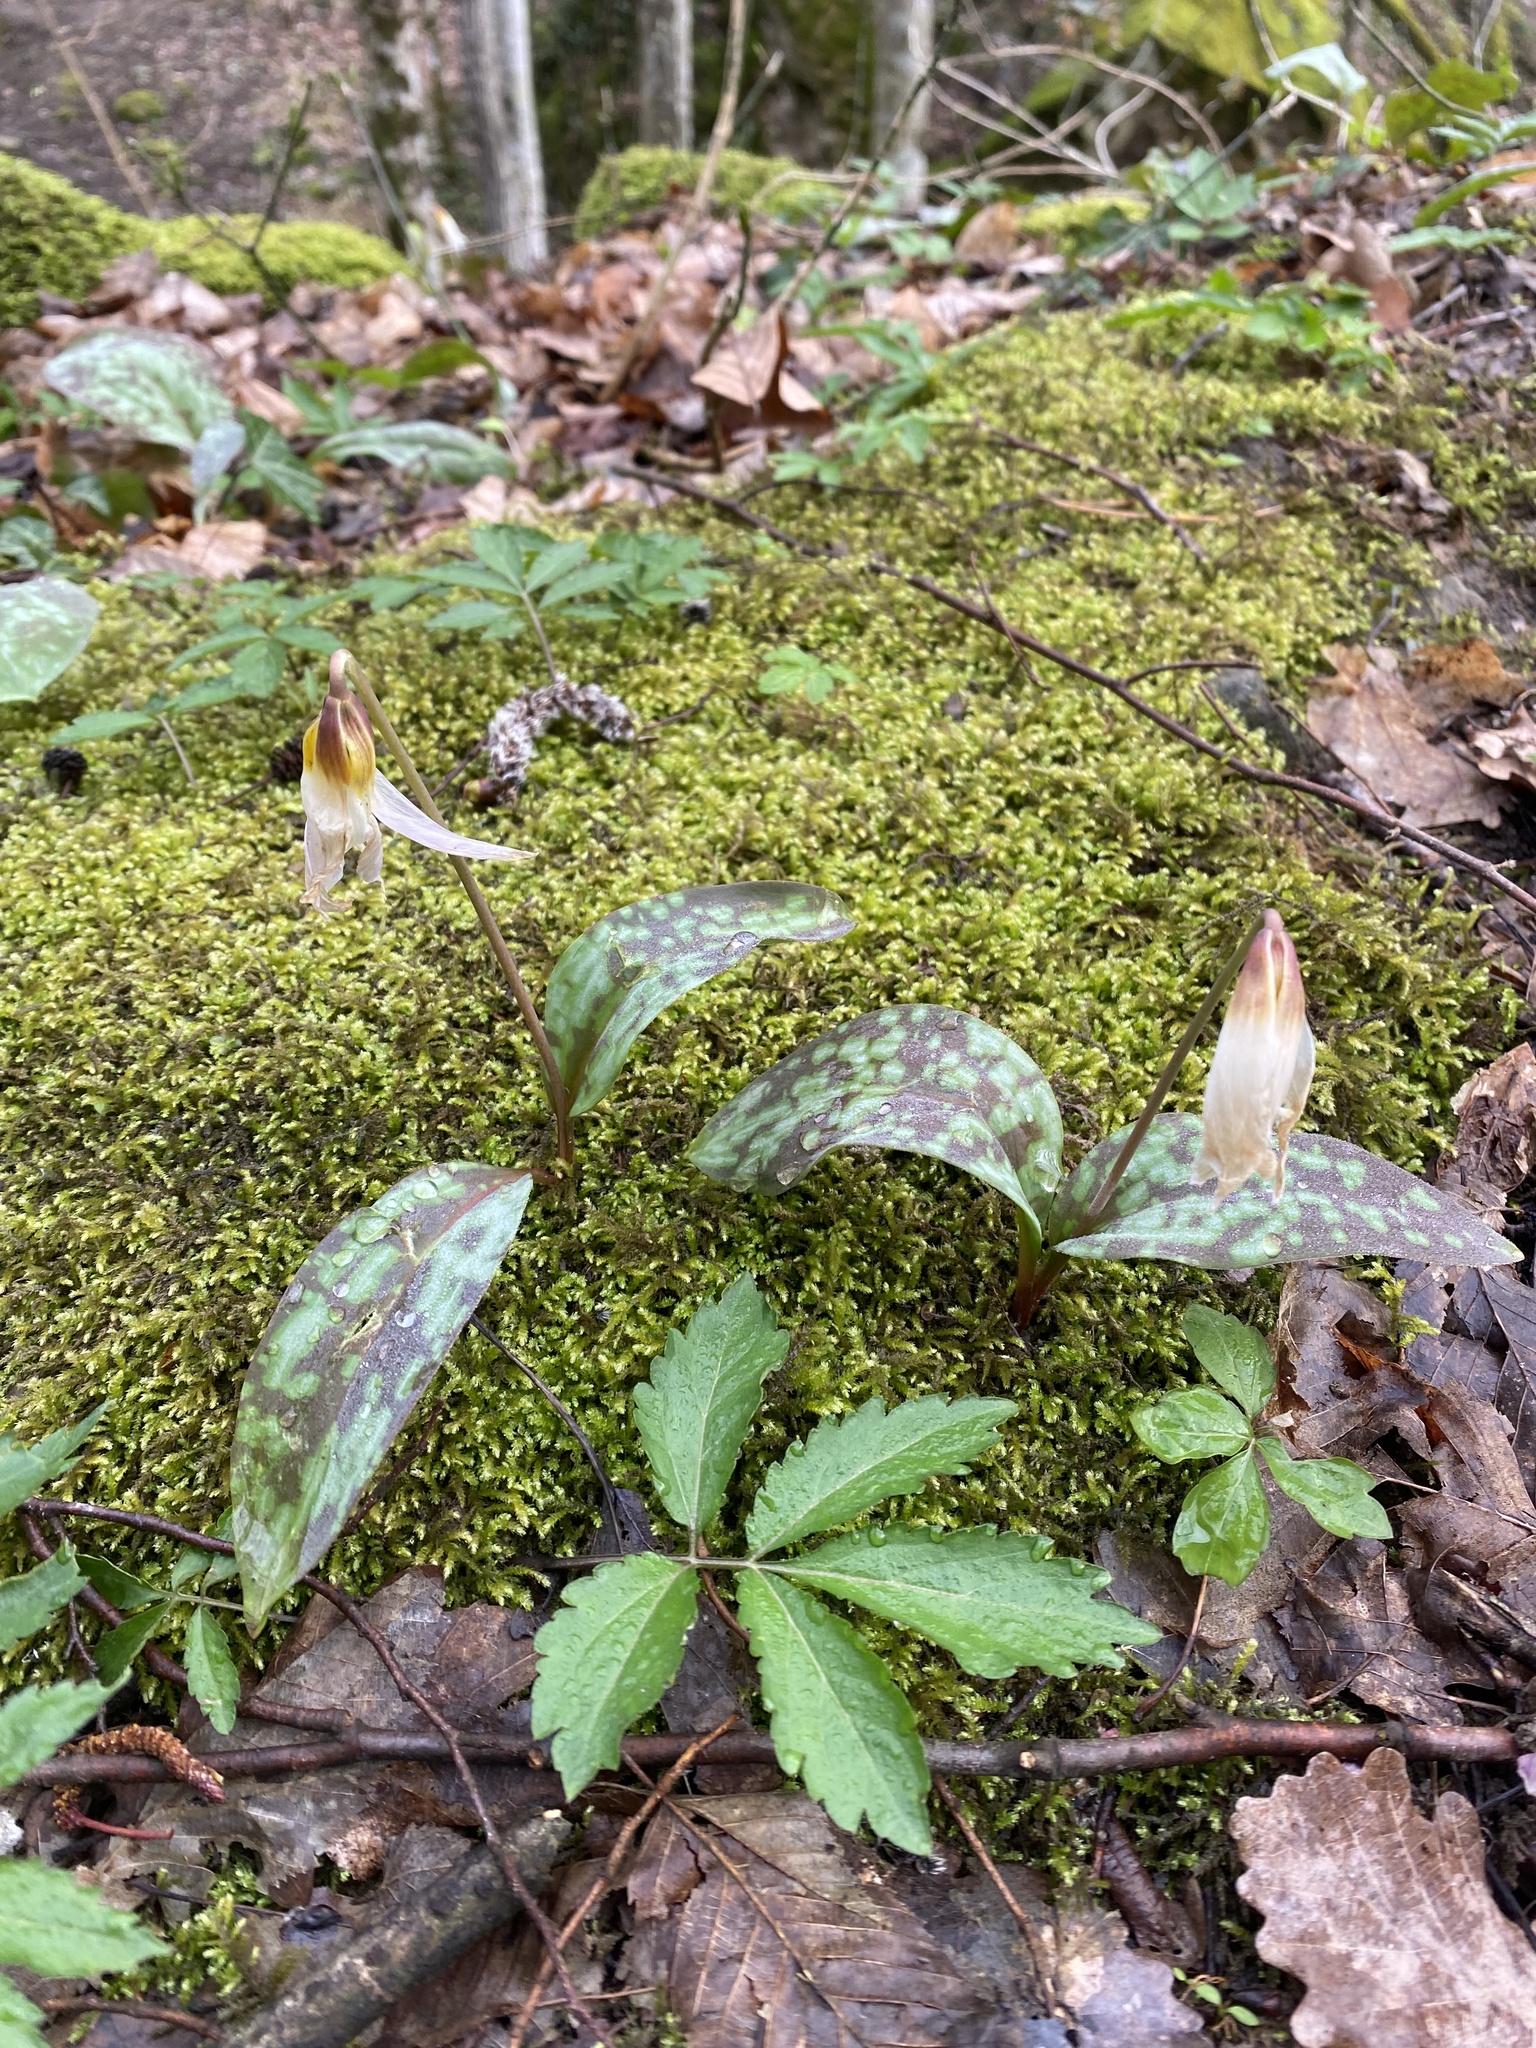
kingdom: Plantae
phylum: Tracheophyta
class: Liliopsida
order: Liliales
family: Liliaceae
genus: Erythronium
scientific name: Erythronium caucasicum
